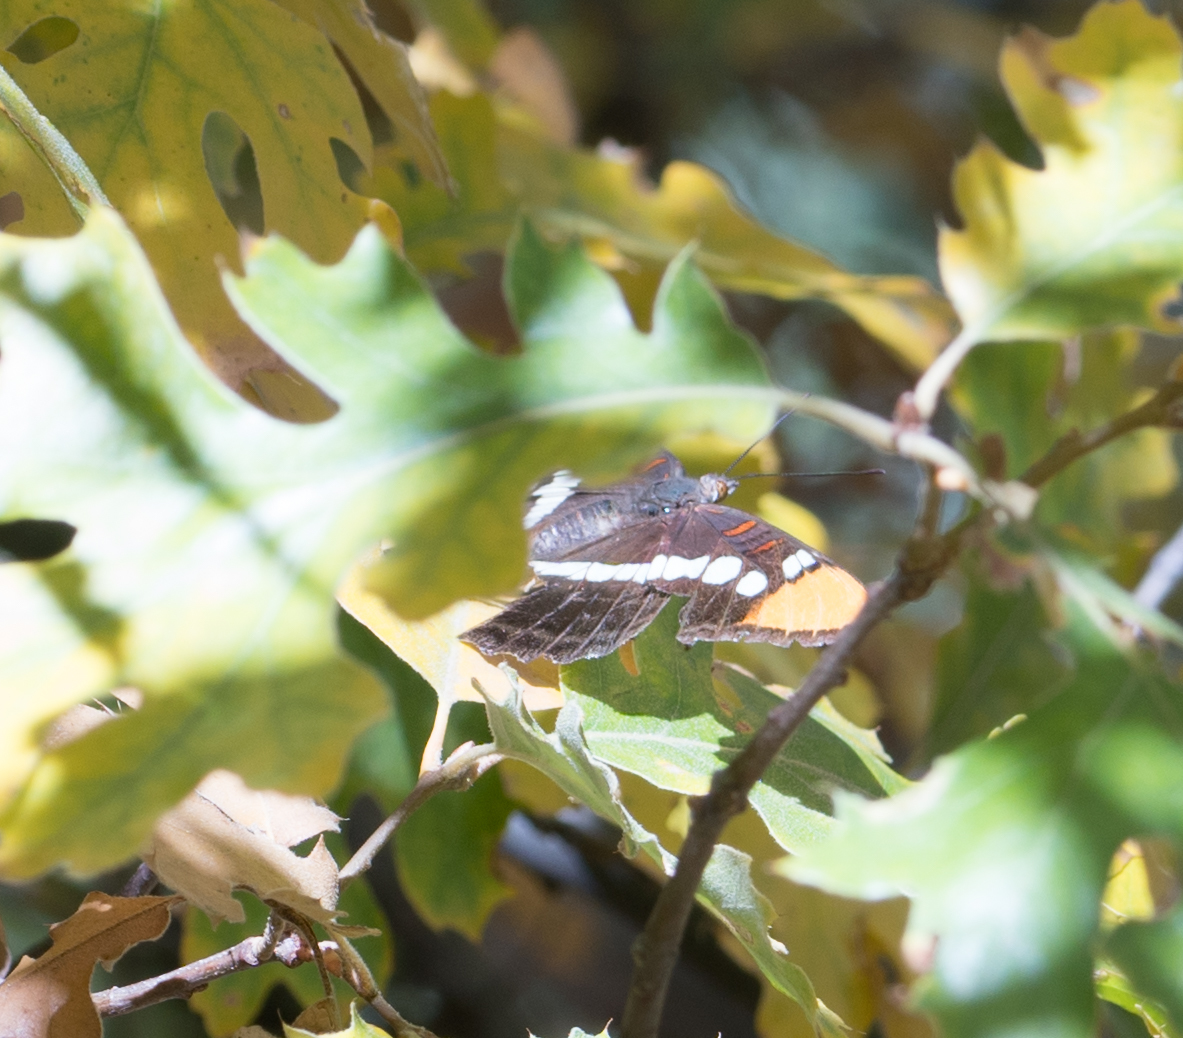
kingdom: Animalia
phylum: Arthropoda
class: Insecta
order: Lepidoptera
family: Nymphalidae
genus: Limenitis
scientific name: Limenitis bredowii
